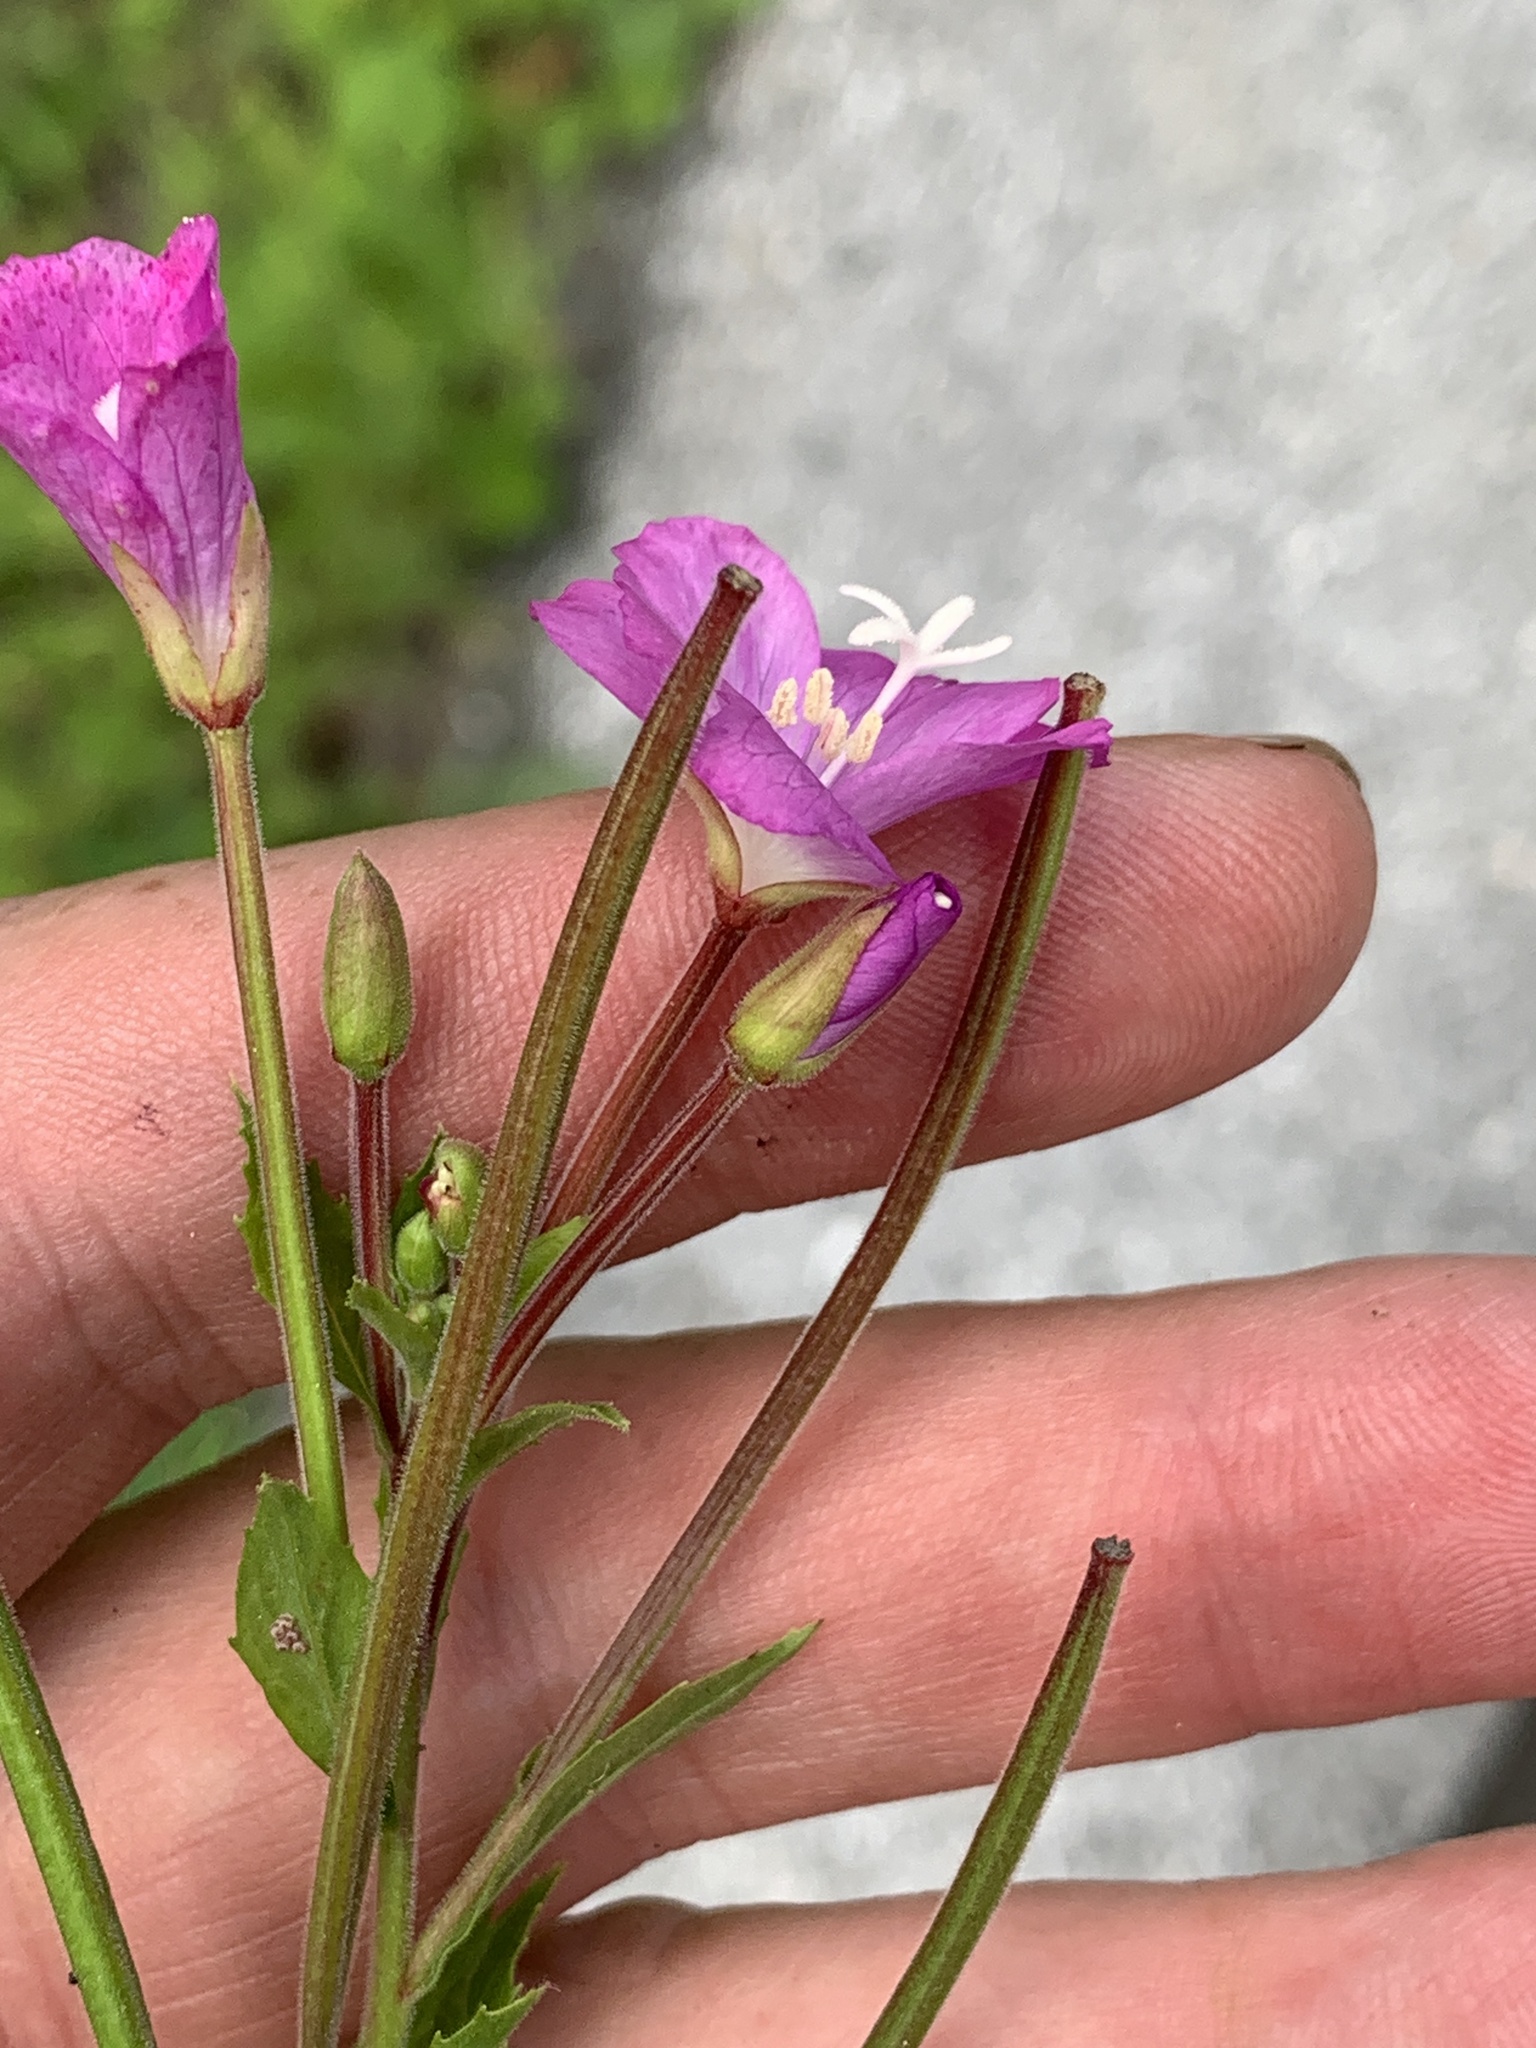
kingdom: Plantae
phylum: Tracheophyta
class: Magnoliopsida
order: Myrtales
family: Onagraceae
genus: Epilobium
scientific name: Epilobium hirsutum
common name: Great willowherb
